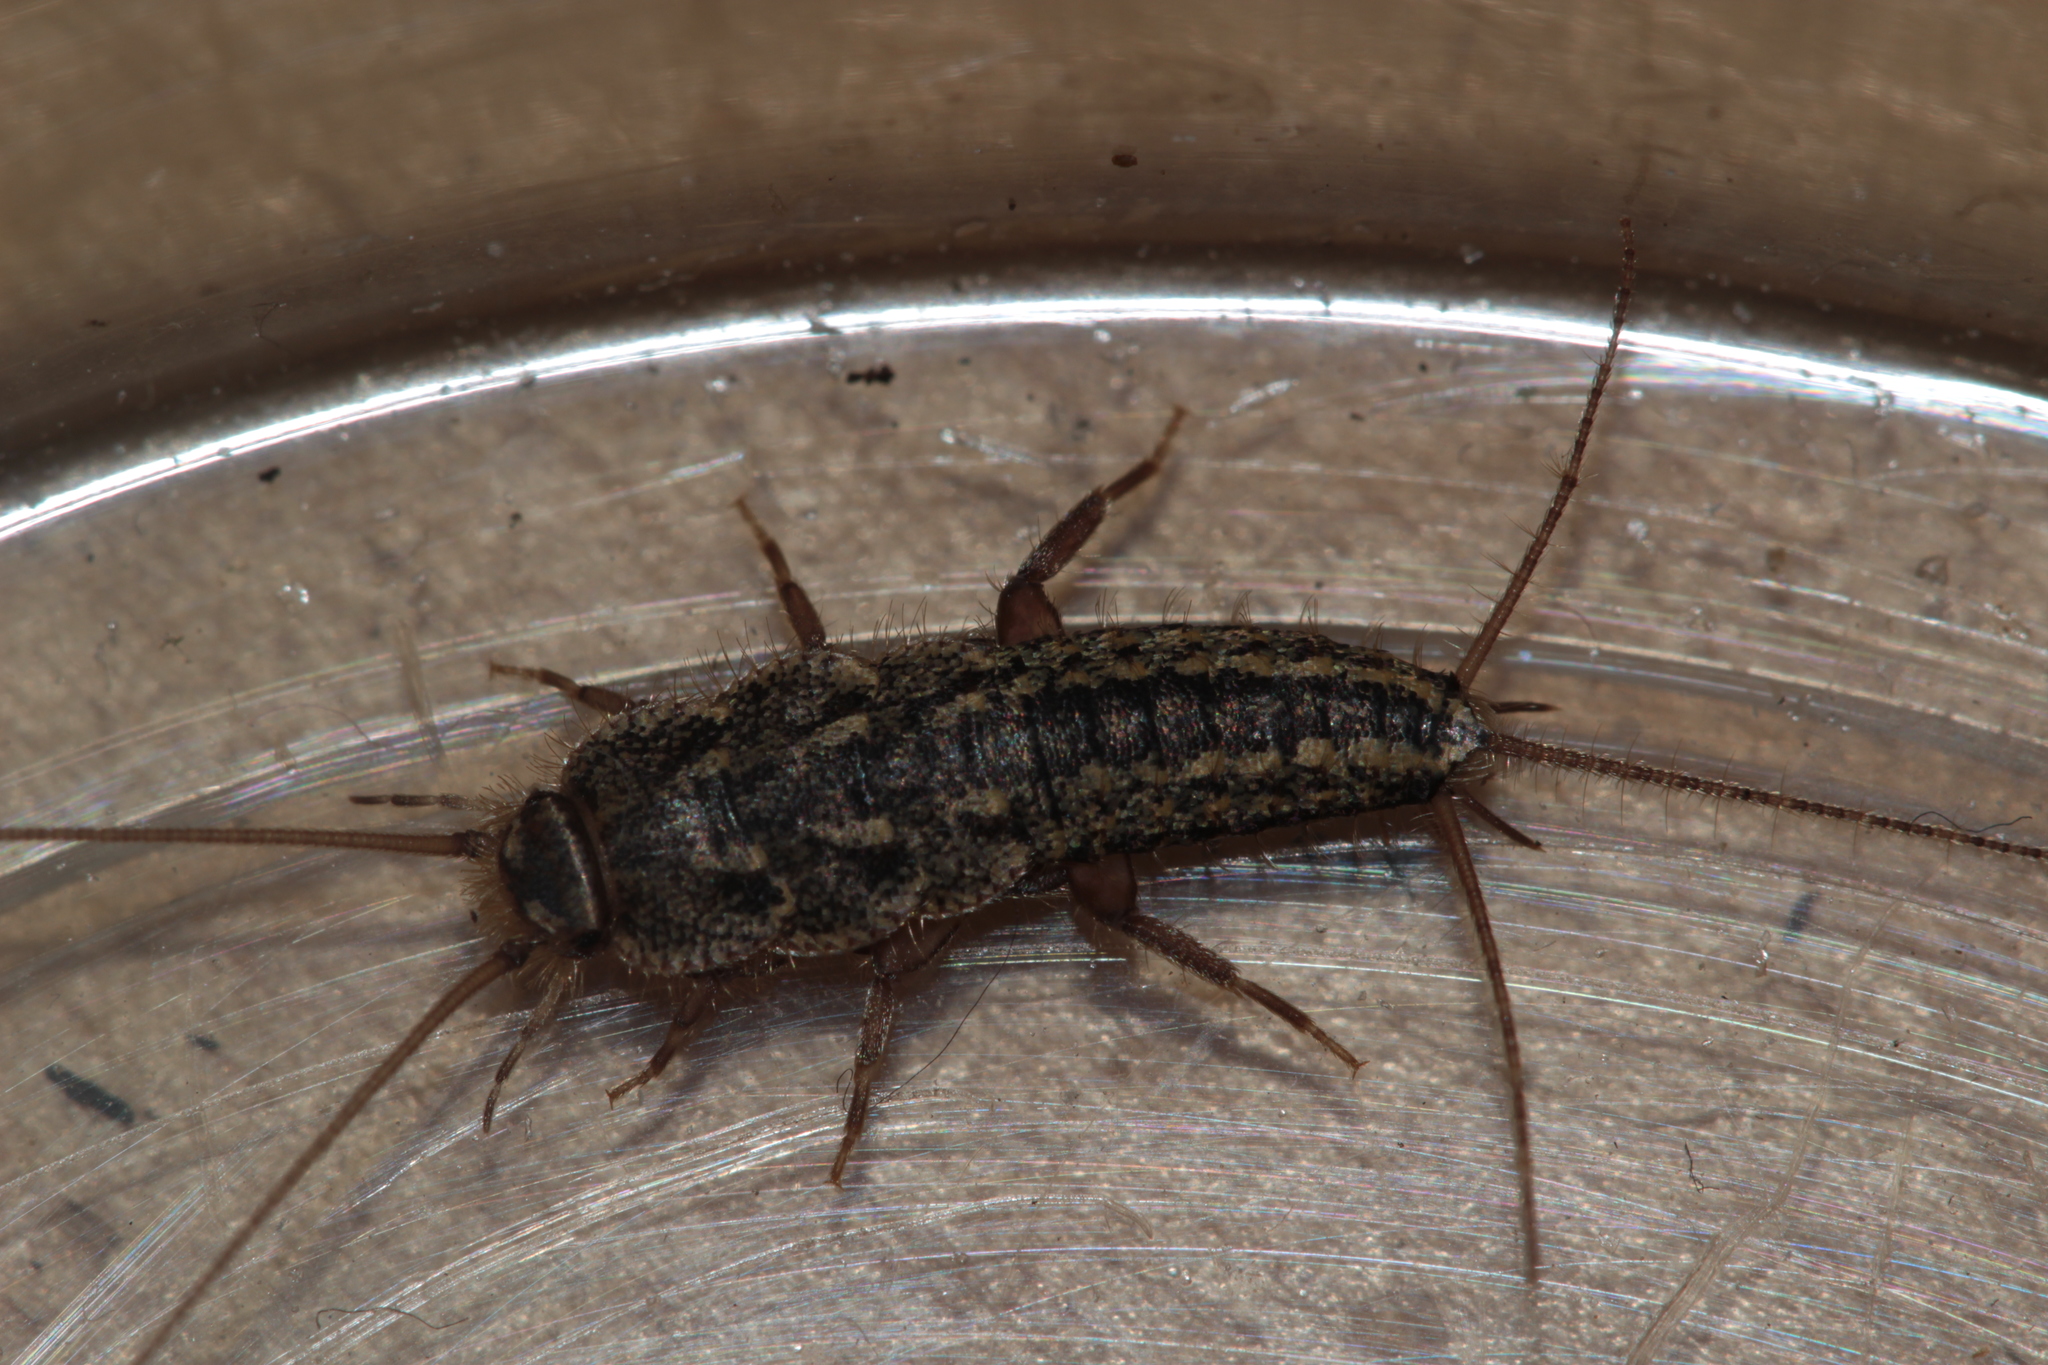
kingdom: Animalia
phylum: Arthropoda
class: Insecta
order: Zygentoma
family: Lepismatidae
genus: Ctenolepisma
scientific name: Ctenolepisma lineata
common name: Four-lined silverfish
